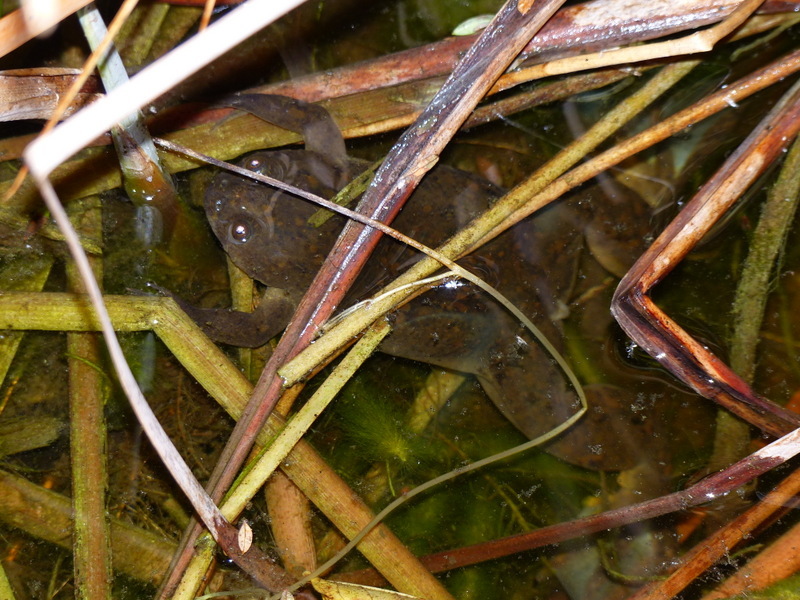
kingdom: Animalia
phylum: Chordata
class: Amphibia
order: Anura
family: Pipidae
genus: Xenopus
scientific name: Xenopus laevis
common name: African clawed frog
